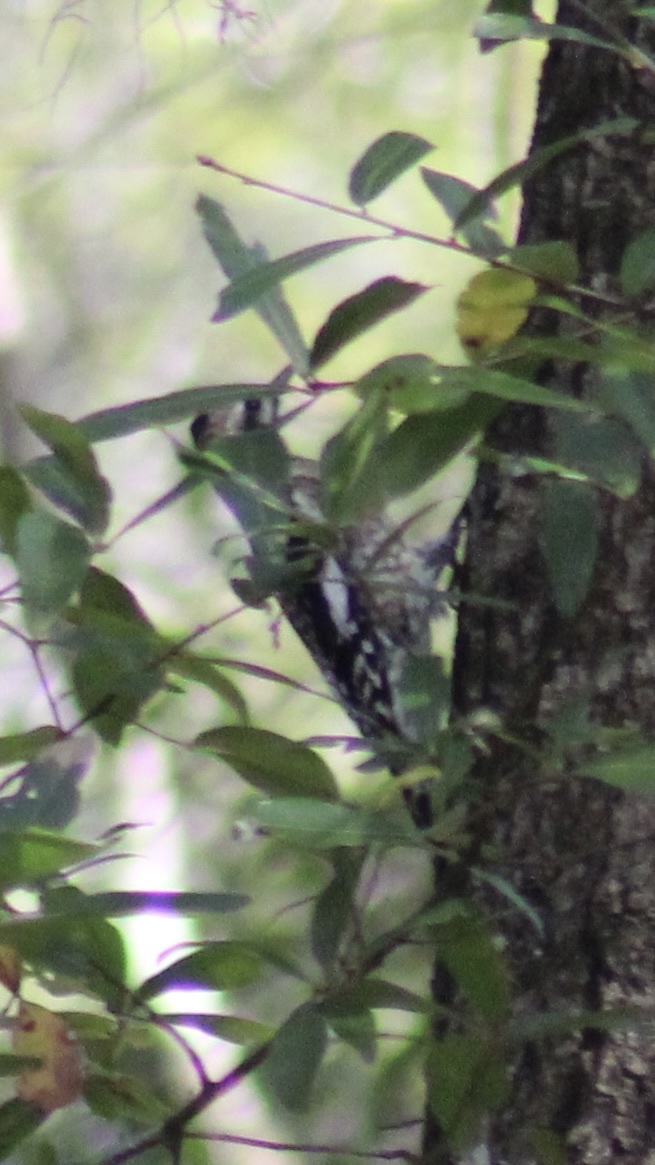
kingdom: Animalia
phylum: Chordata
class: Aves
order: Piciformes
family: Picidae
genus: Sphyrapicus
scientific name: Sphyrapicus varius
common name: Yellow-bellied sapsucker
